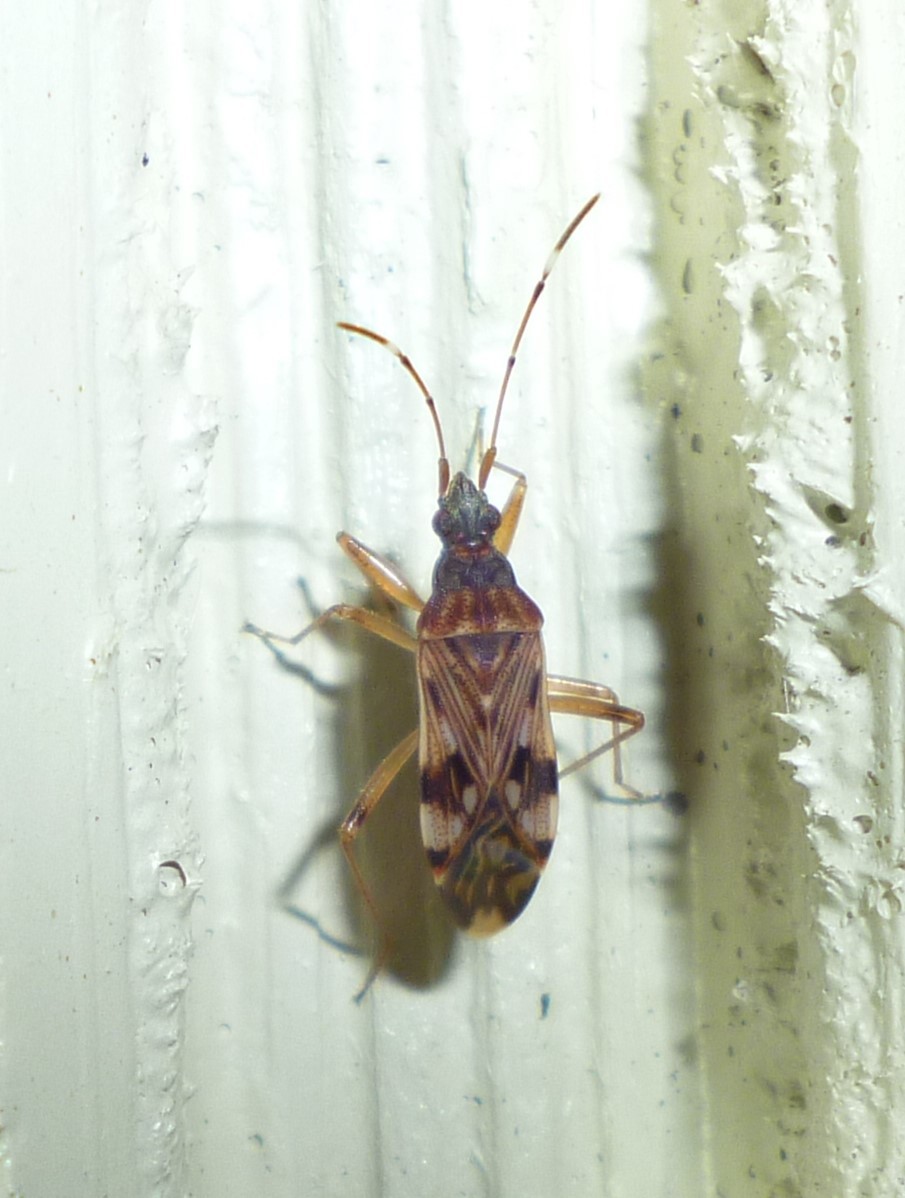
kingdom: Animalia
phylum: Arthropoda
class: Insecta
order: Hemiptera
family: Rhyparochromidae
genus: Ozophora
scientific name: Ozophora picturata
